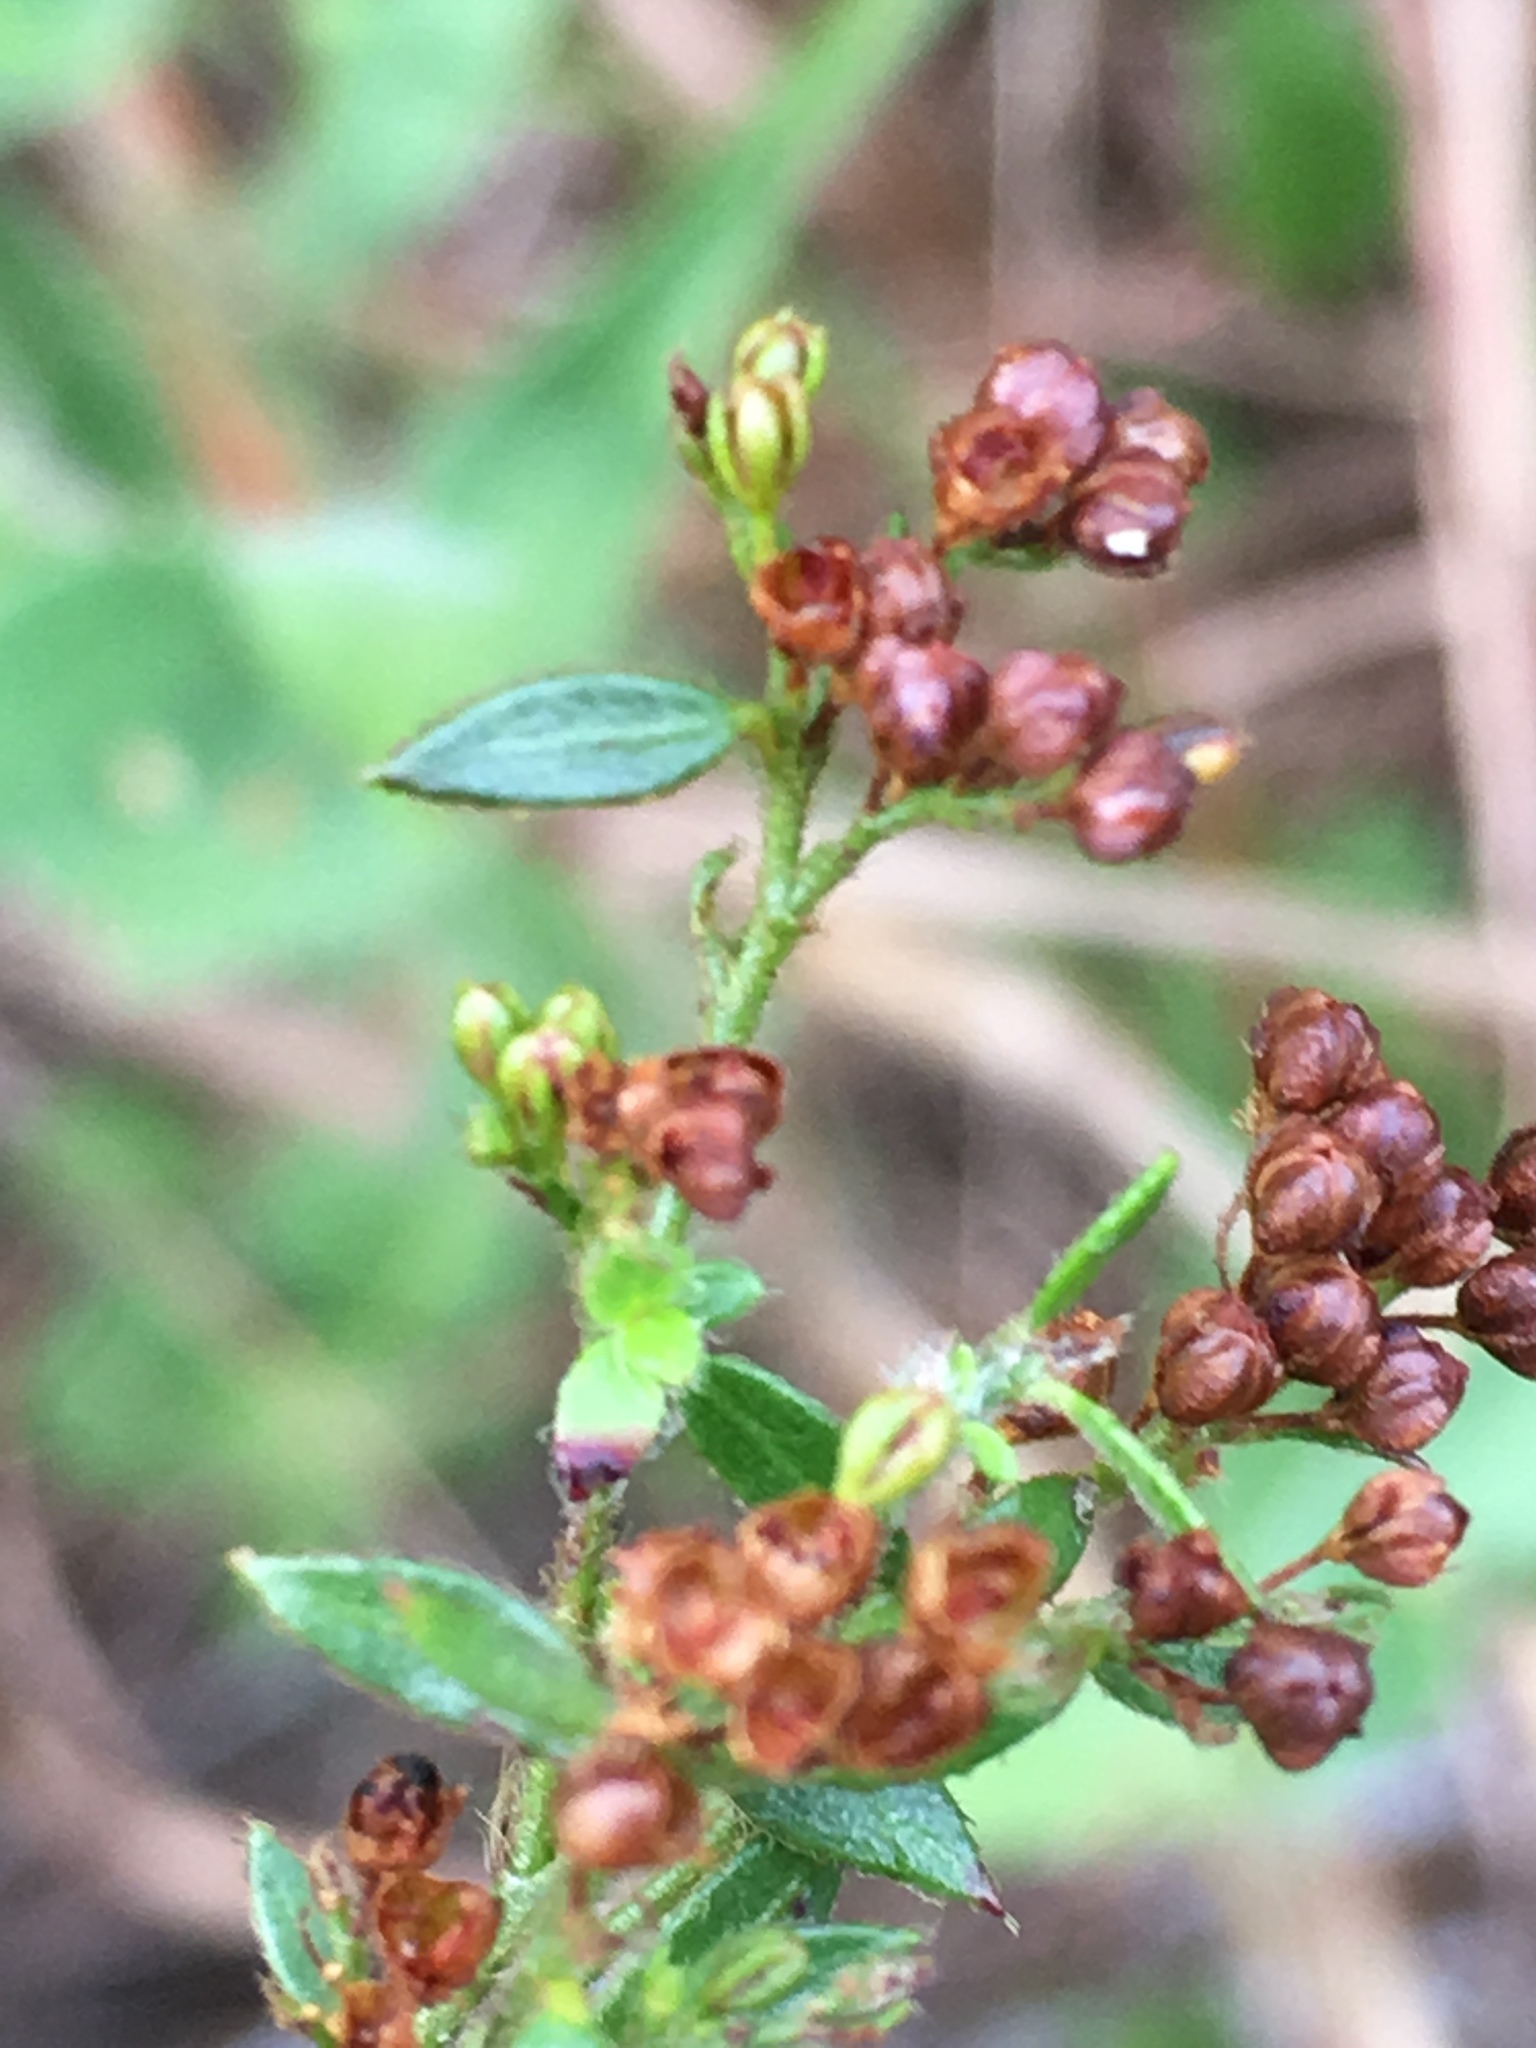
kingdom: Plantae
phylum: Tracheophyta
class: Magnoliopsida
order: Malvales
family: Cistaceae
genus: Lechea
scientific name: Lechea mucronata
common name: Hairy pinweed
